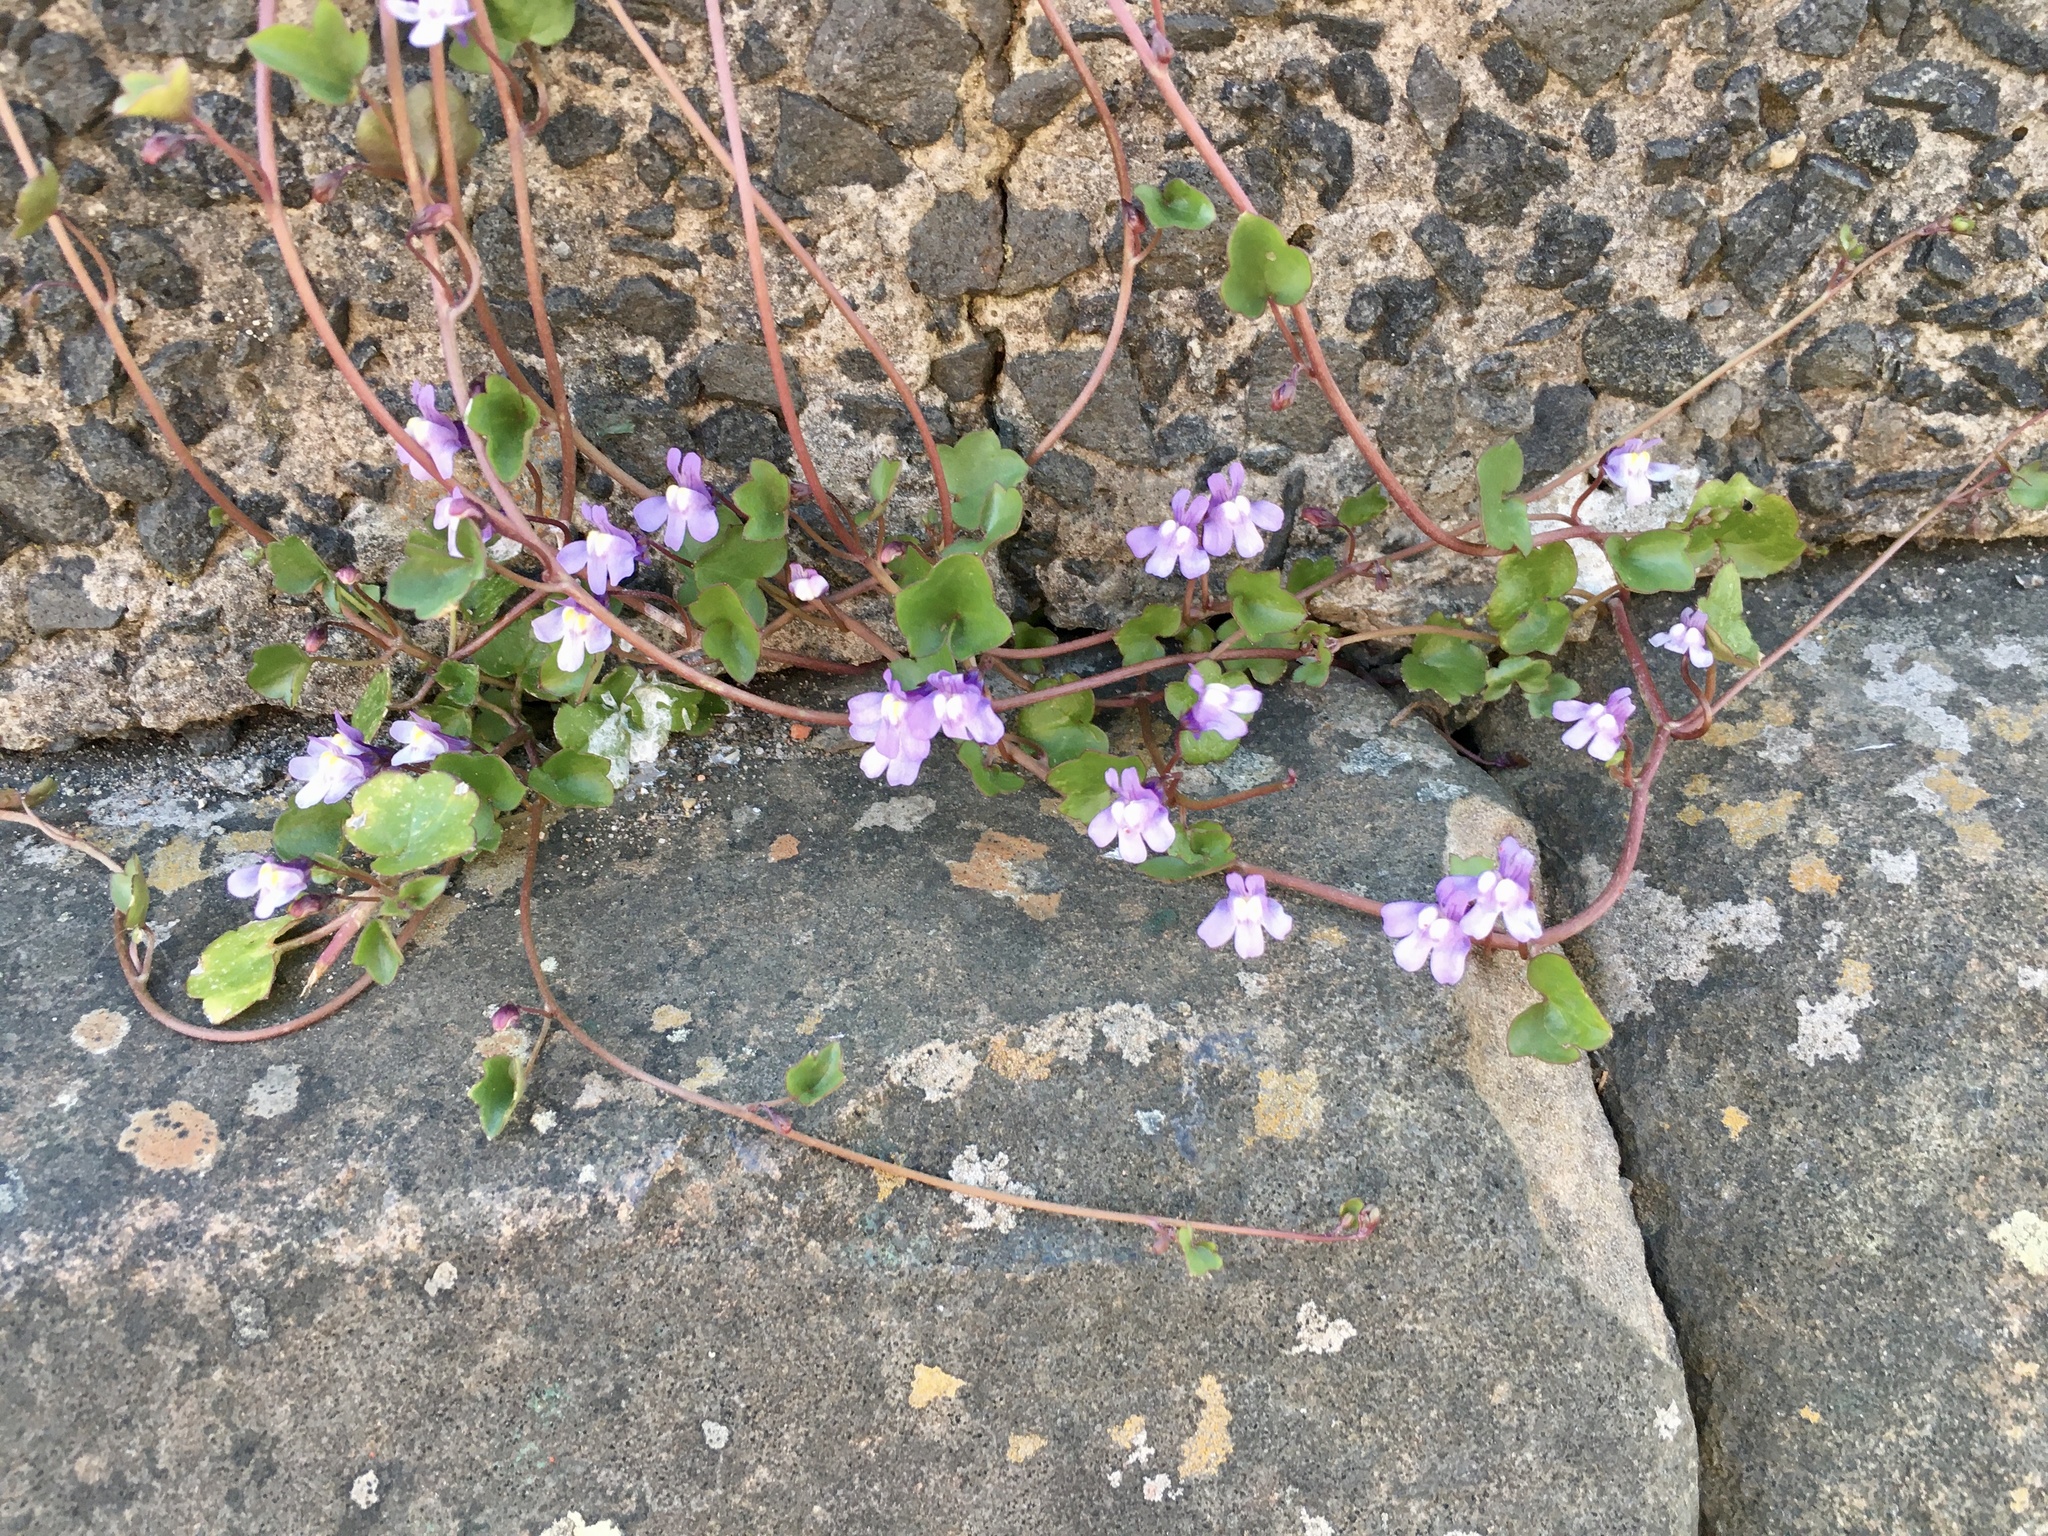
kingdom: Plantae
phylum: Tracheophyta
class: Magnoliopsida
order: Lamiales
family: Plantaginaceae
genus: Cymbalaria
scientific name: Cymbalaria muralis
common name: Ivy-leaved toadflax
